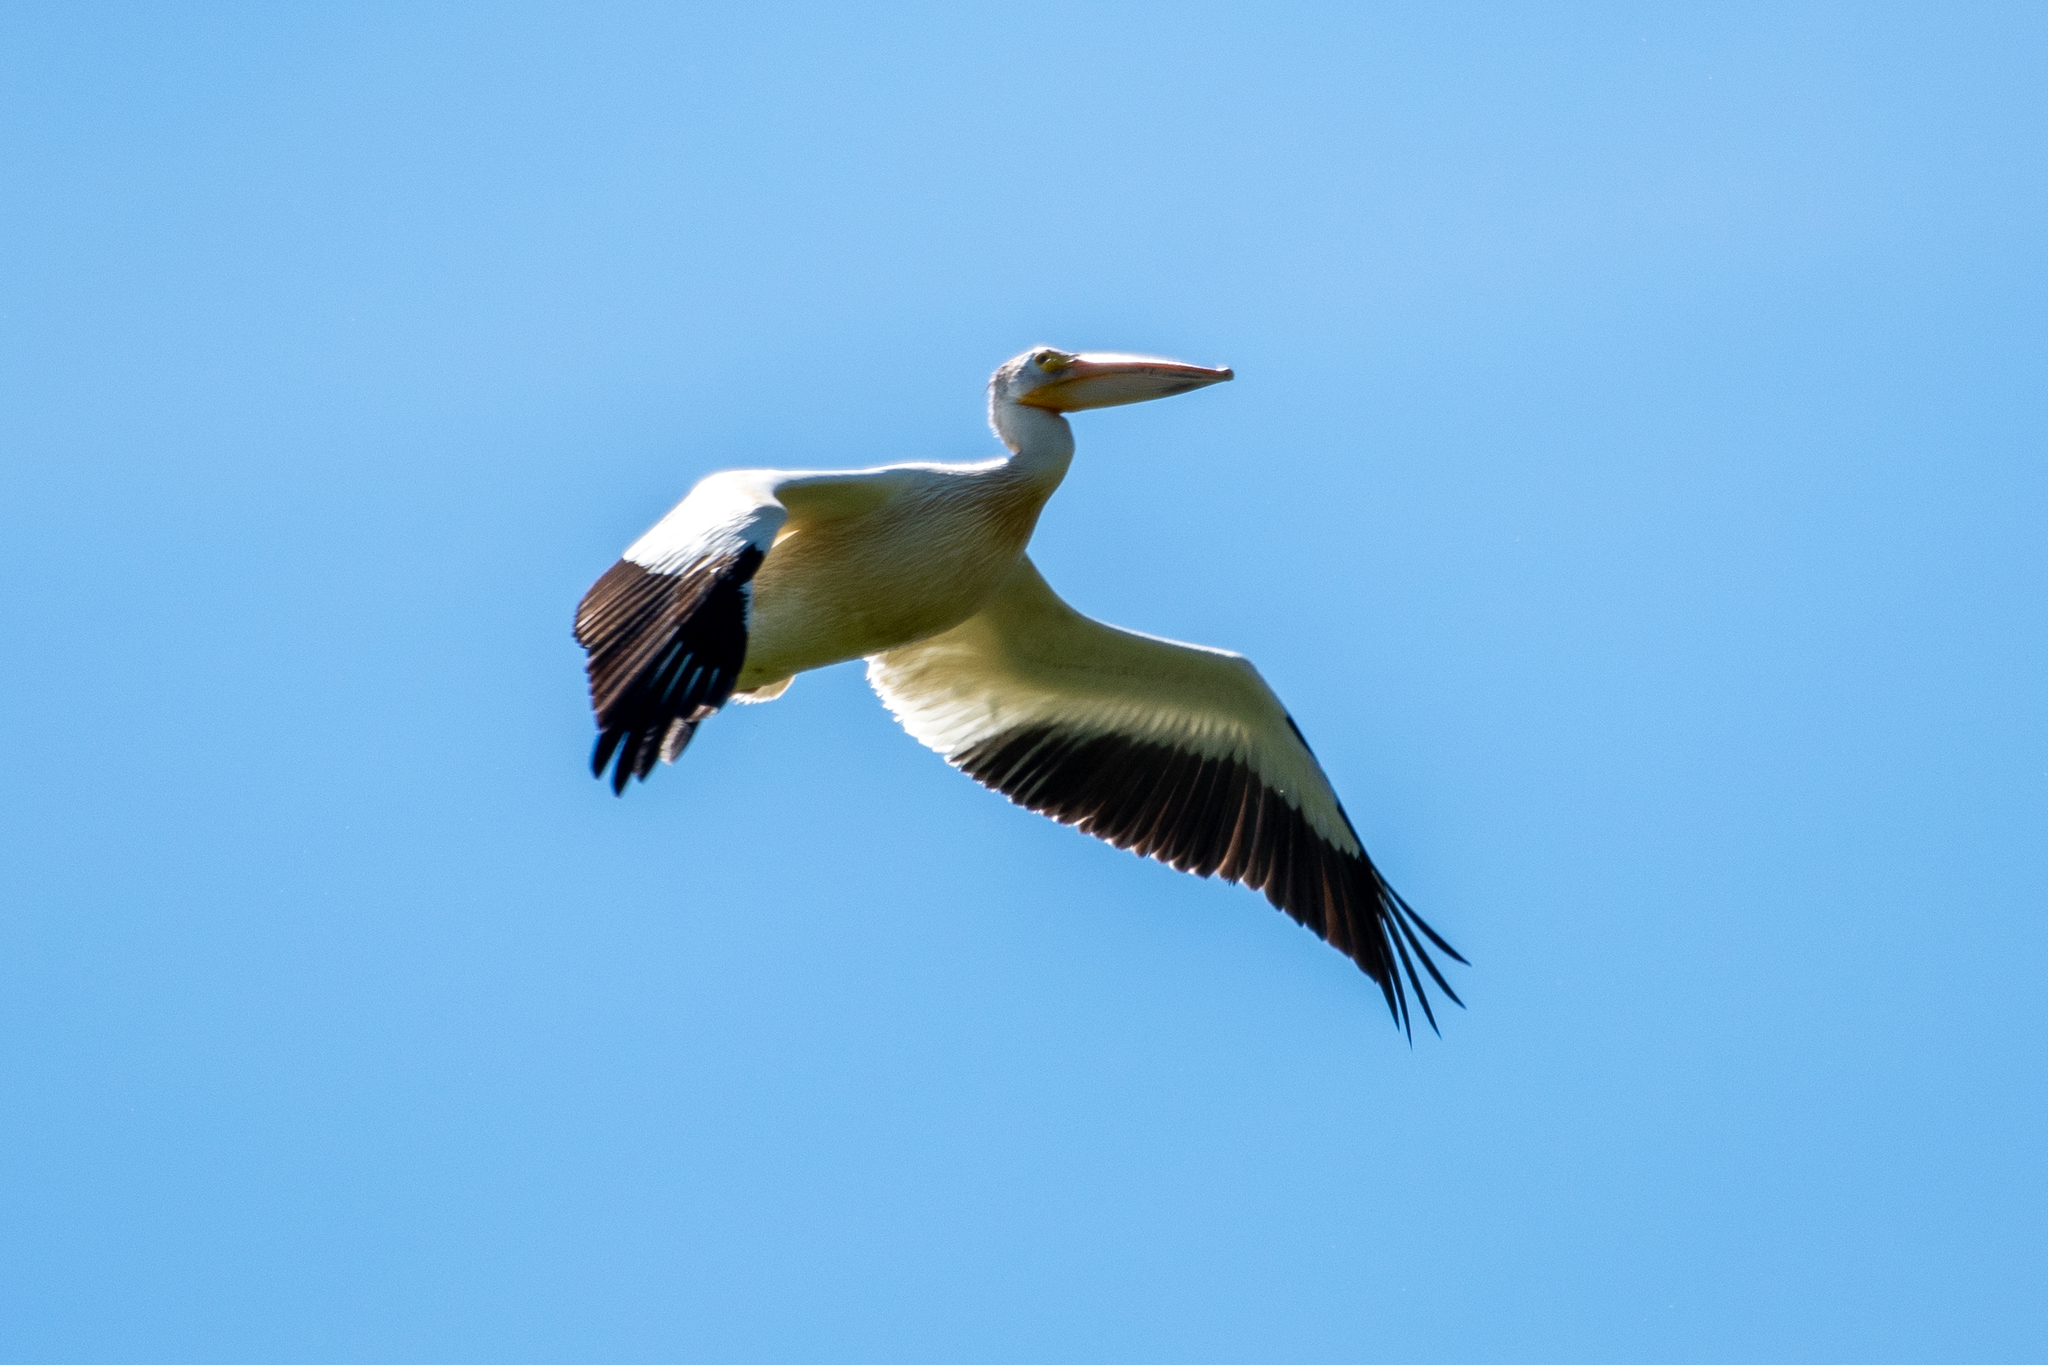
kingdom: Animalia
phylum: Chordata
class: Aves
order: Pelecaniformes
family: Pelecanidae
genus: Pelecanus
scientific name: Pelecanus erythrorhynchos
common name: American white pelican
